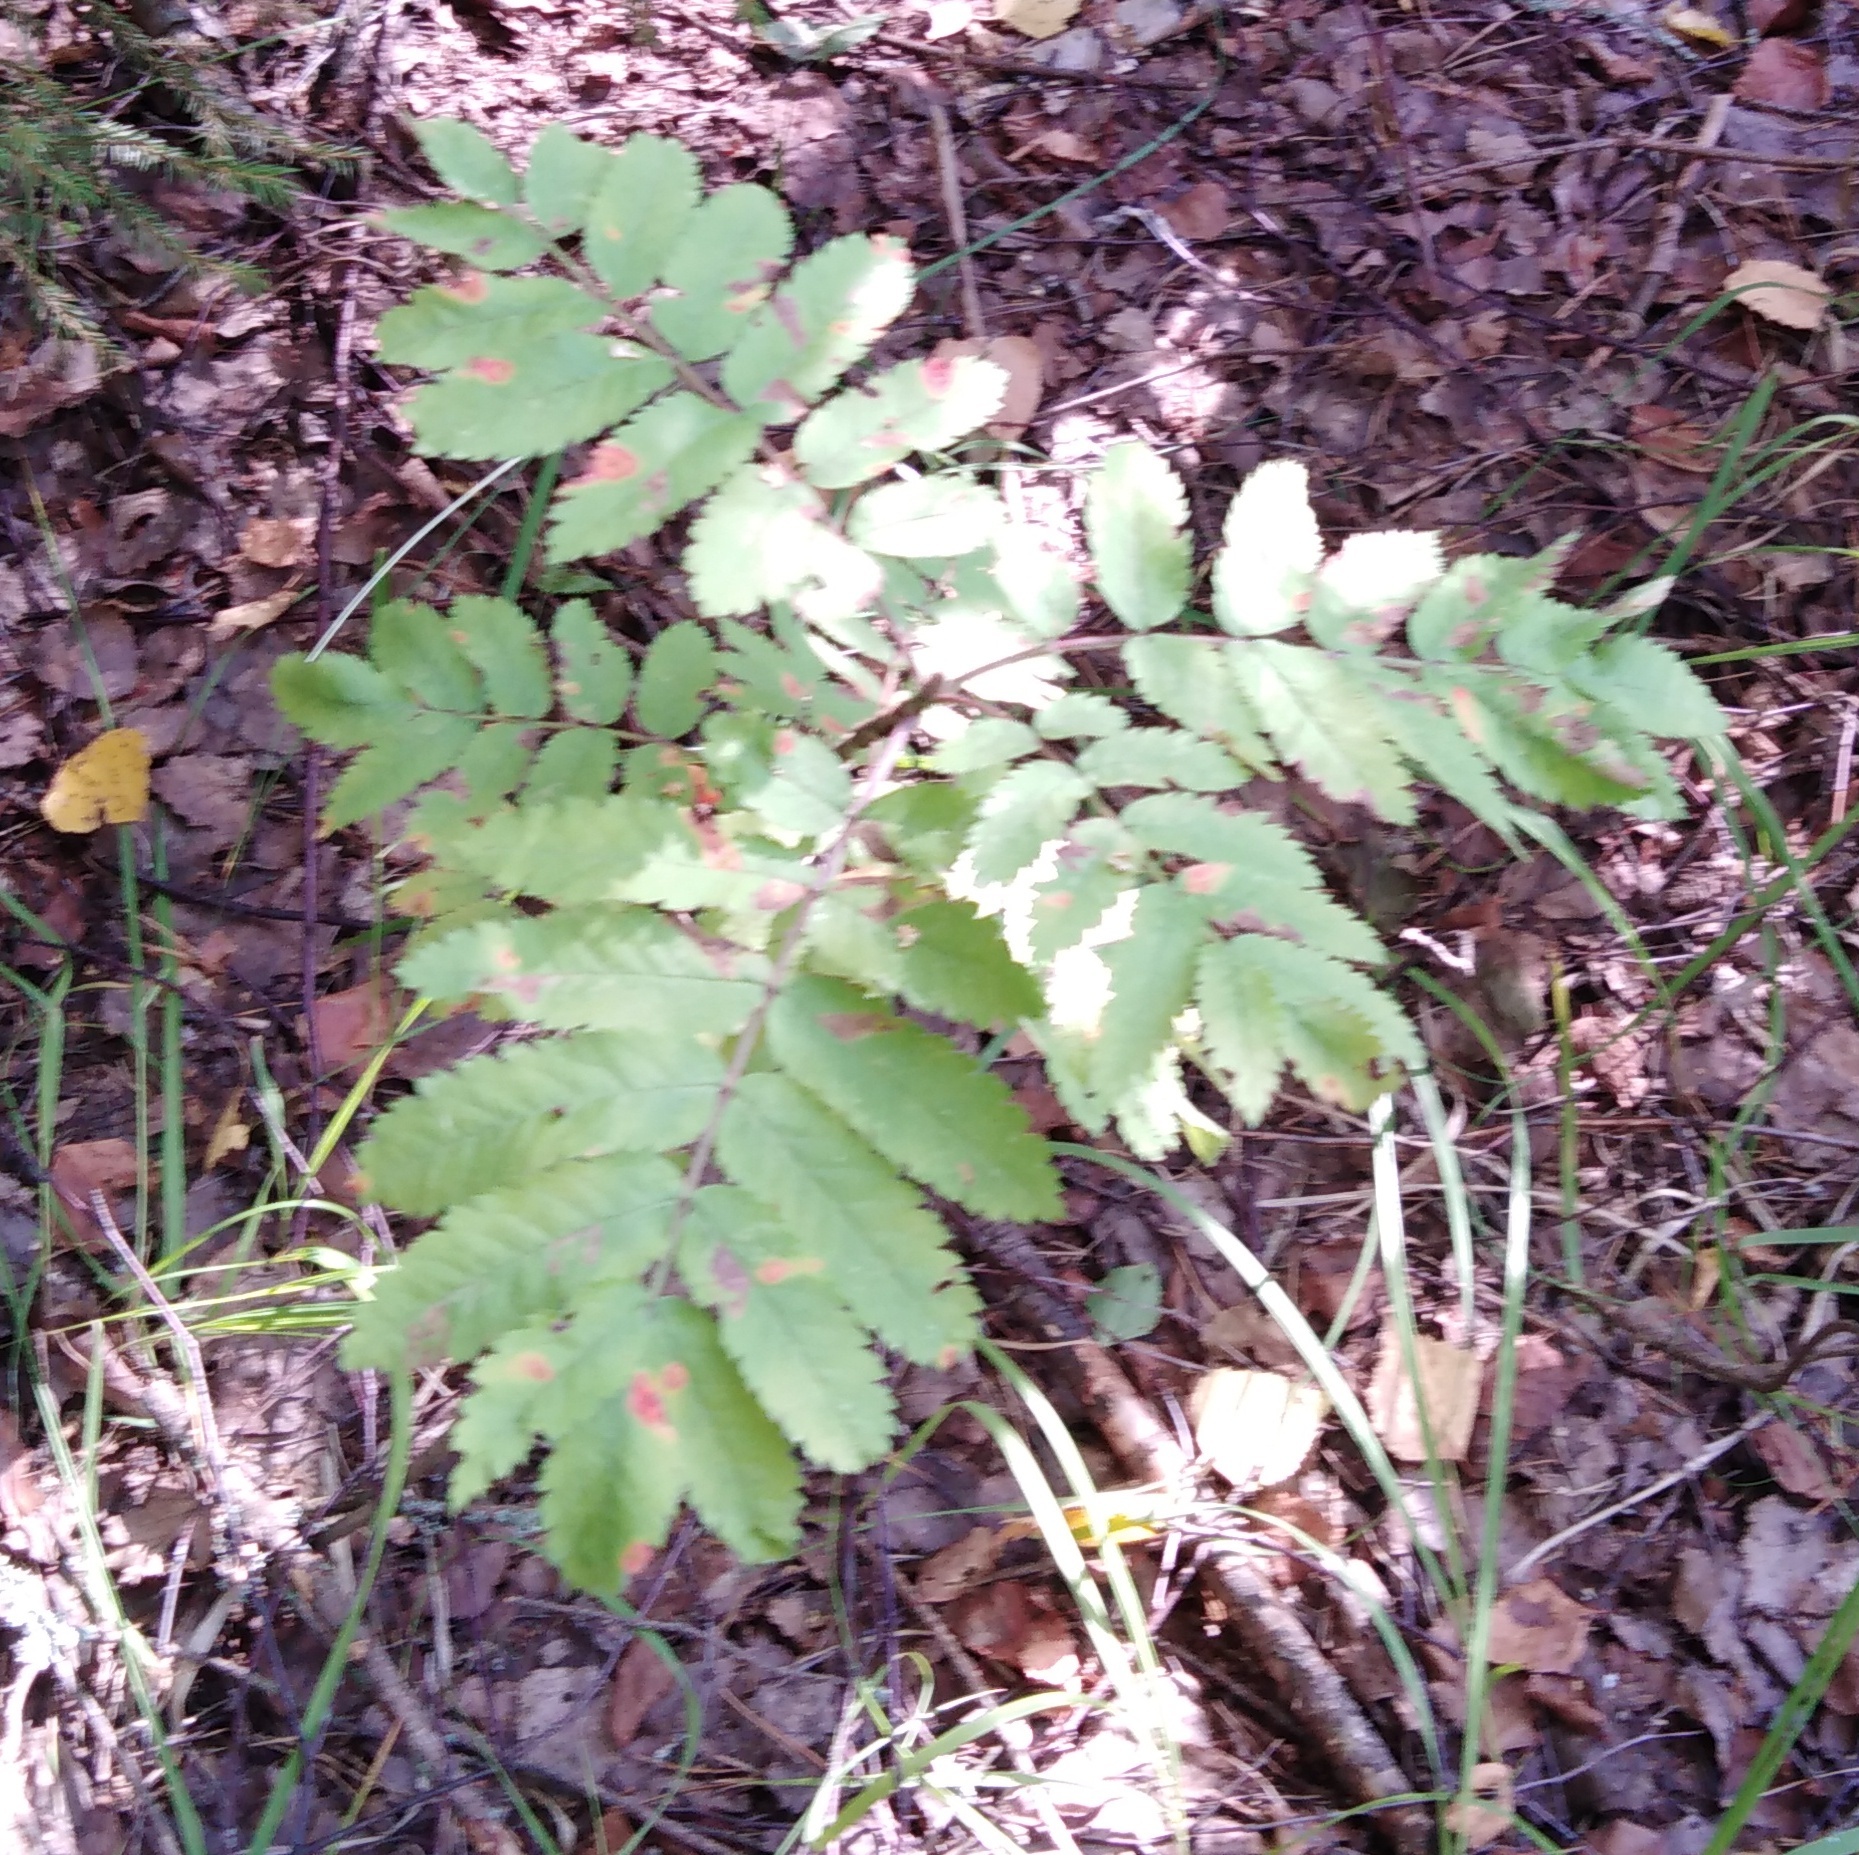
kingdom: Plantae
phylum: Tracheophyta
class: Magnoliopsida
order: Rosales
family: Rosaceae
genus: Sorbus
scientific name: Sorbus aucuparia
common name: Rowan
